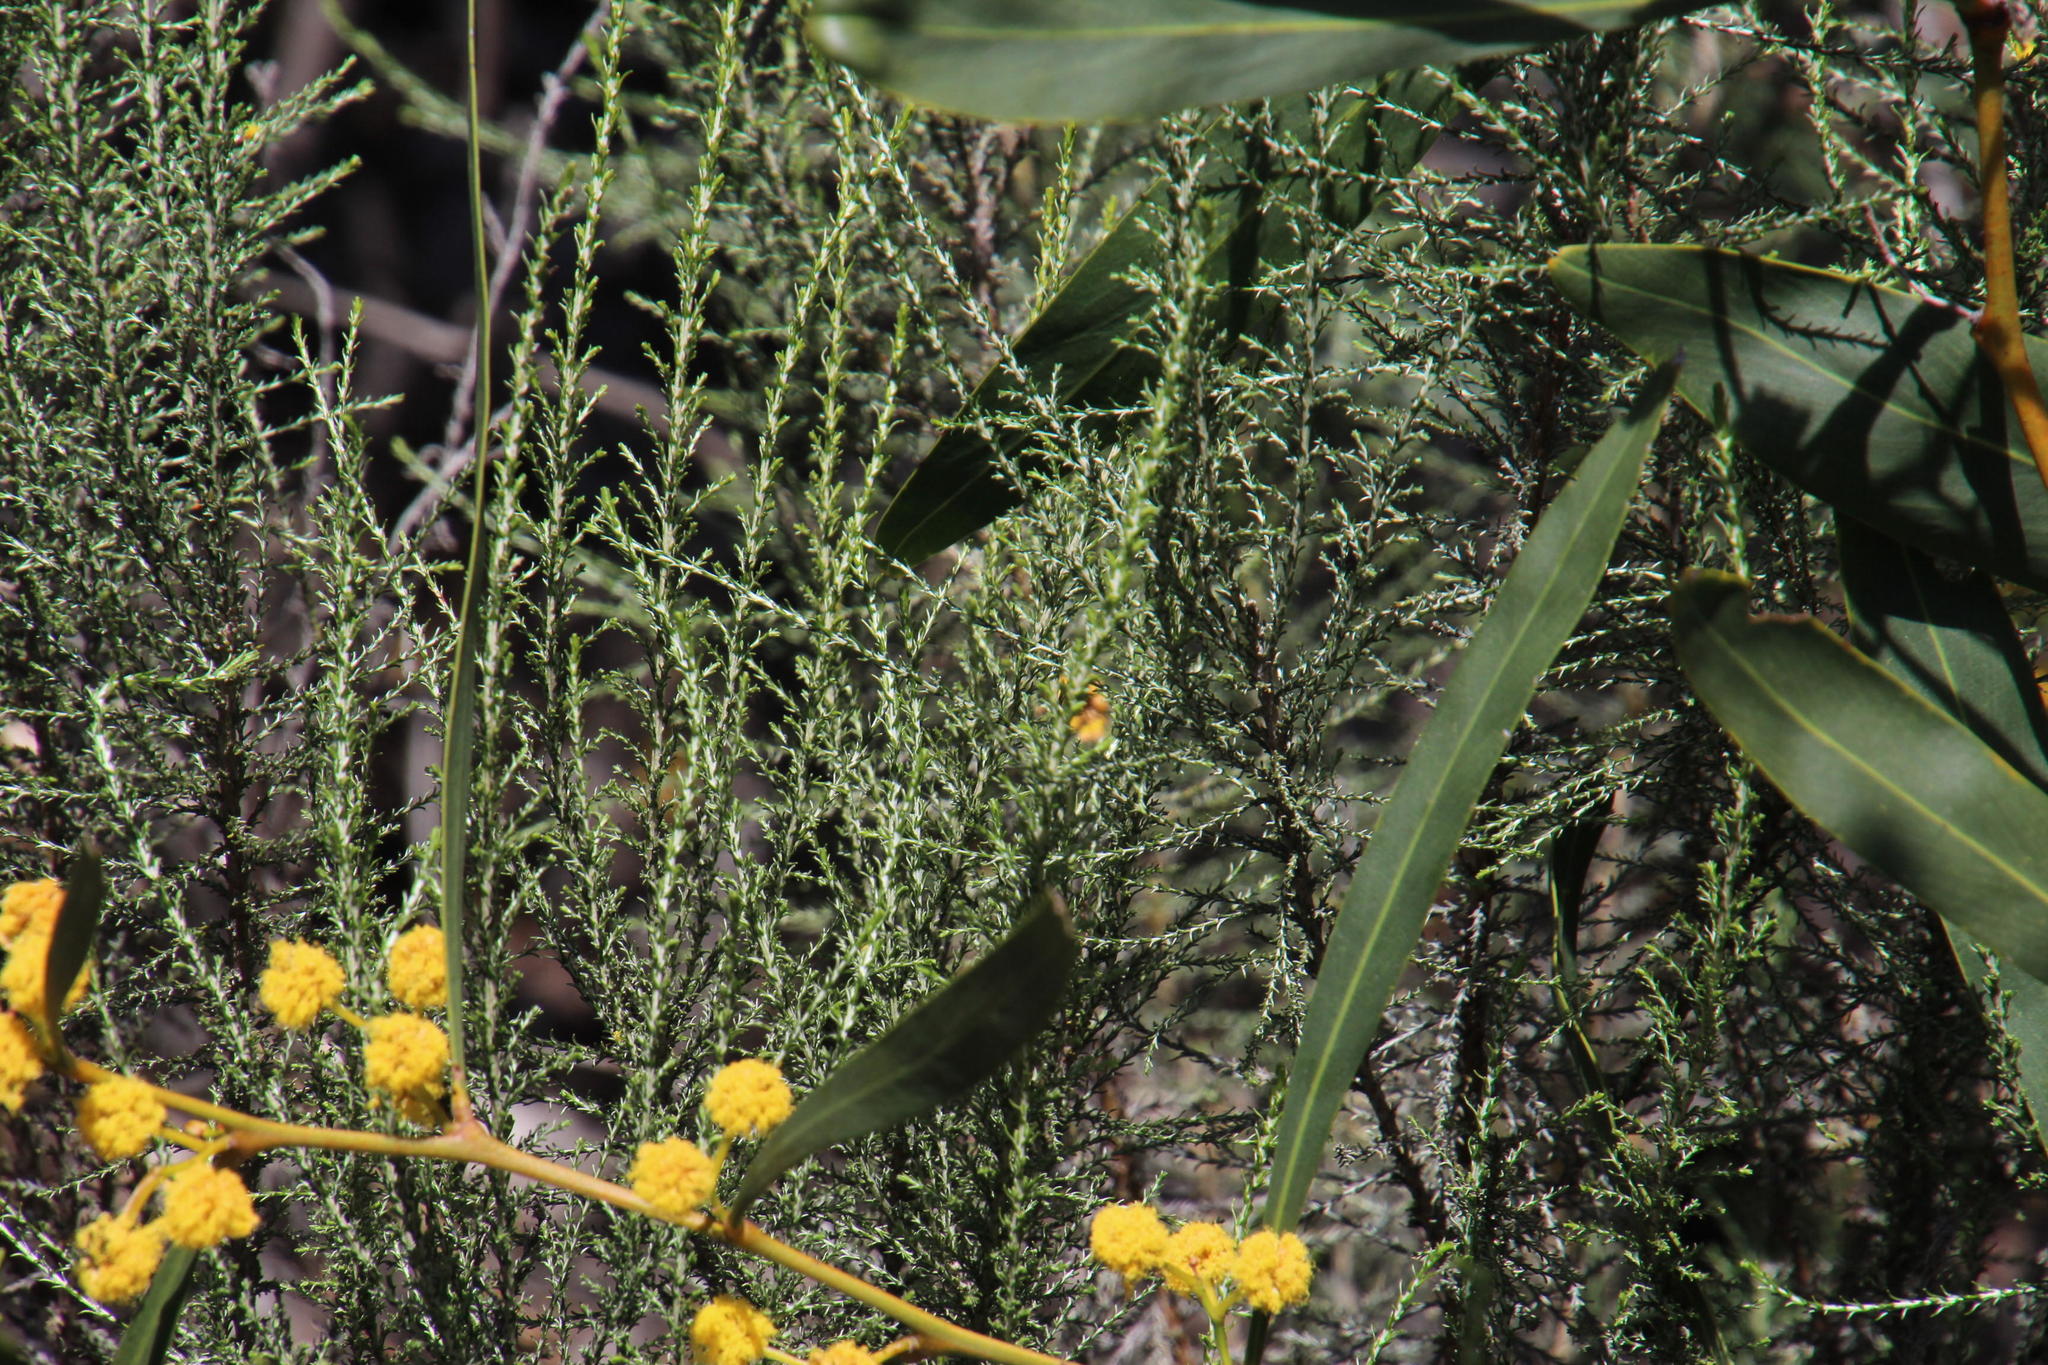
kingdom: Plantae
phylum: Tracheophyta
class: Magnoliopsida
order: Asterales
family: Asteraceae
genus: Dicerothamnus
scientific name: Dicerothamnus rhinocerotis
